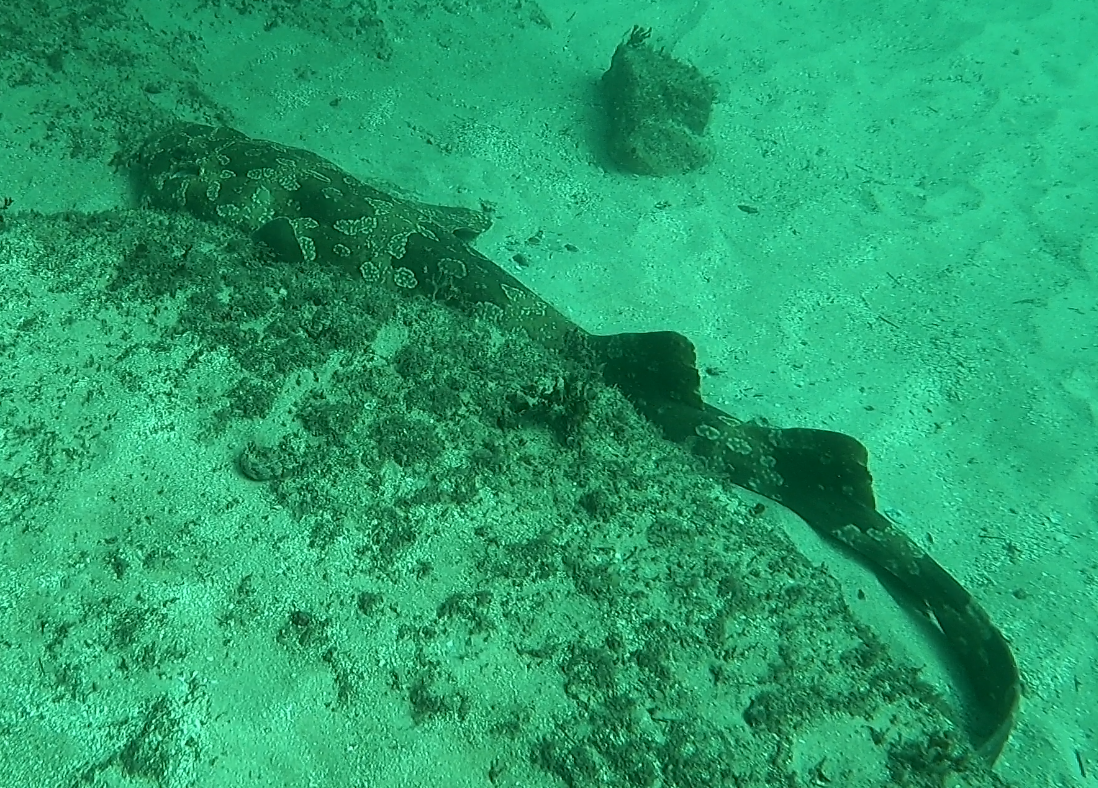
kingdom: Animalia
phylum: Chordata
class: Elasmobranchii
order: Orectolobiformes
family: Orectolobidae
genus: Orectolobus
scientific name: Orectolobus maculatus
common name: Spotted wobbegong
